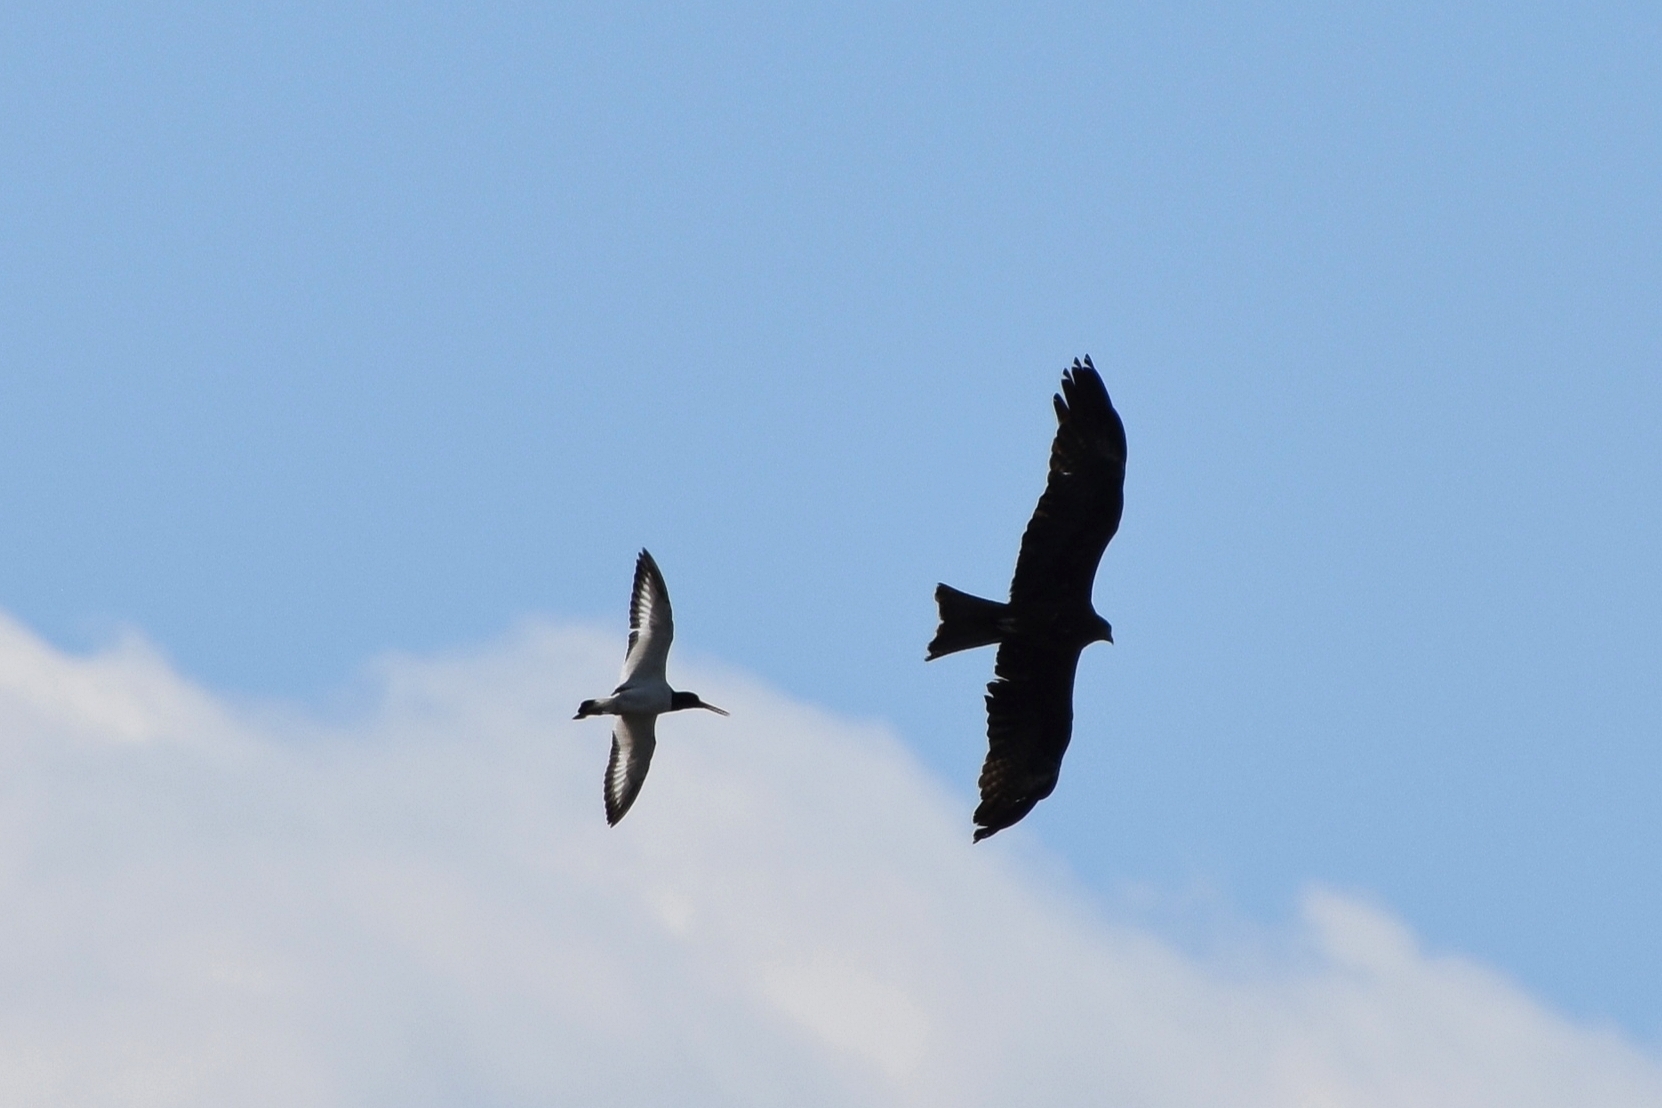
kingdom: Animalia
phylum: Chordata
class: Aves
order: Charadriiformes
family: Haematopodidae
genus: Haematopus
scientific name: Haematopus ostralegus
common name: Eurasian oystercatcher
